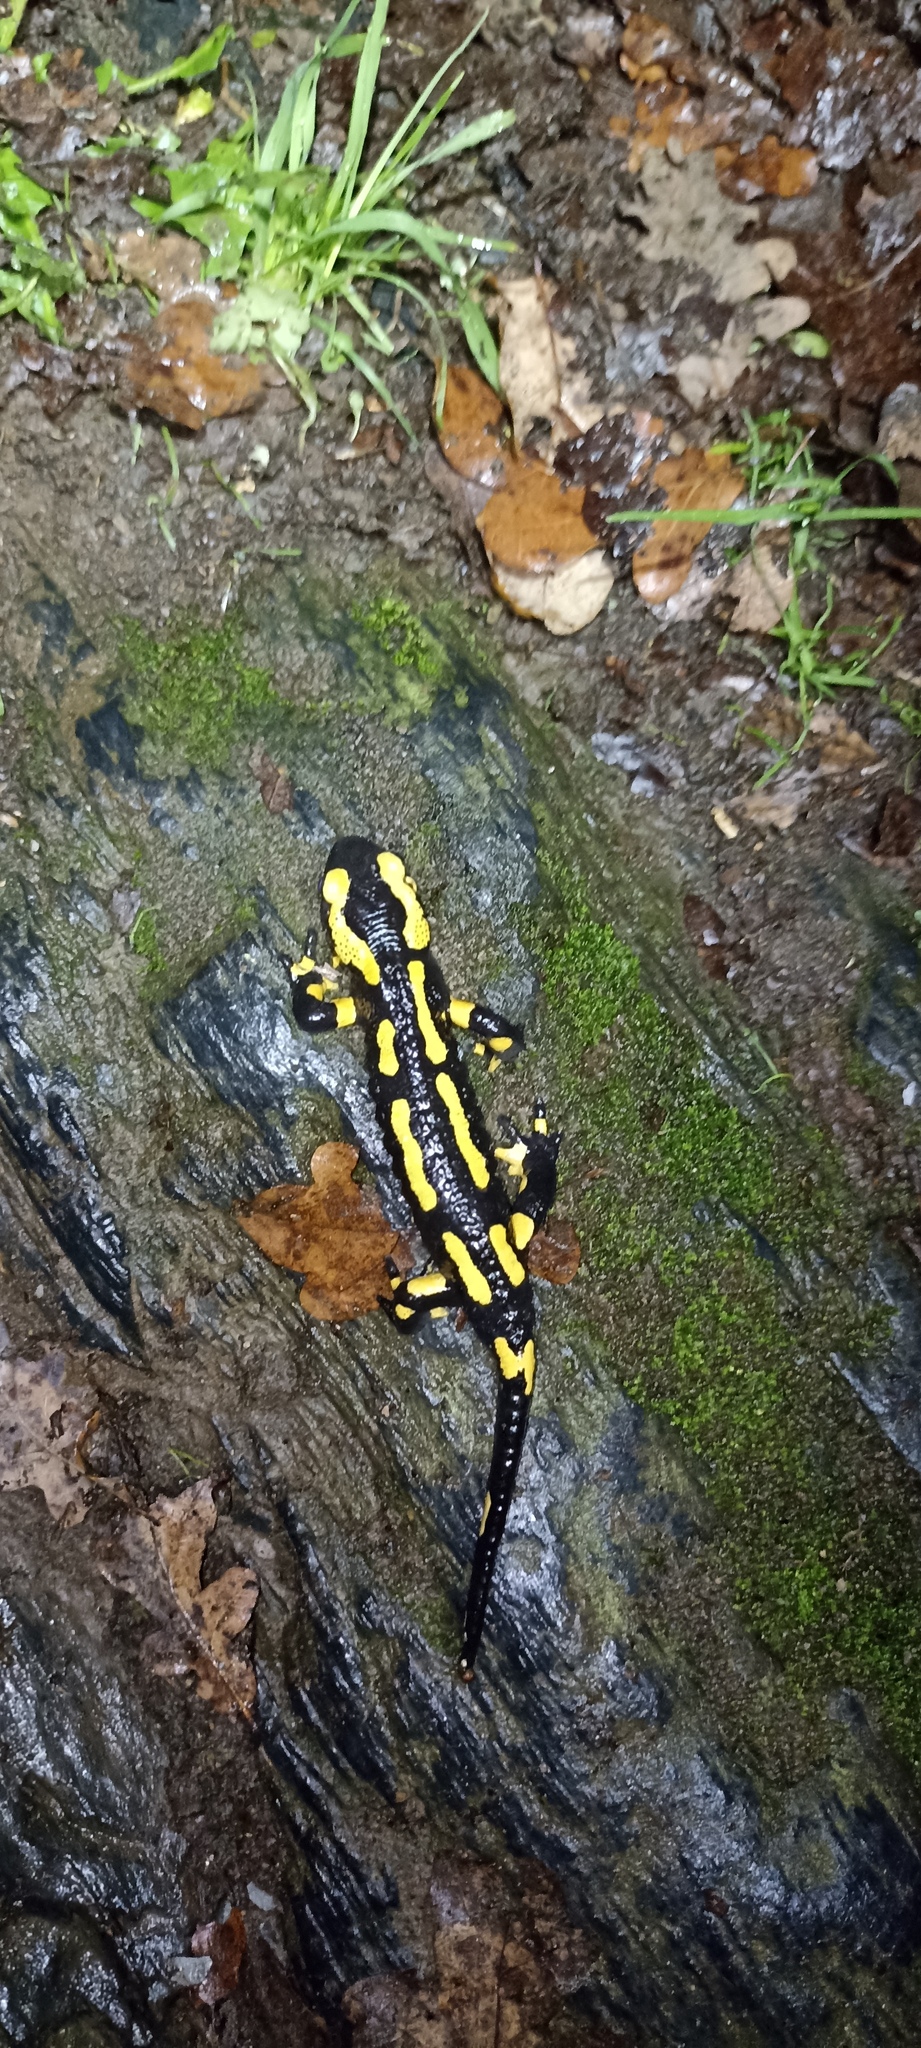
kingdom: Animalia
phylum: Chordata
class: Amphibia
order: Caudata
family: Salamandridae
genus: Salamandra
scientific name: Salamandra salamandra
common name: Fire salamander
